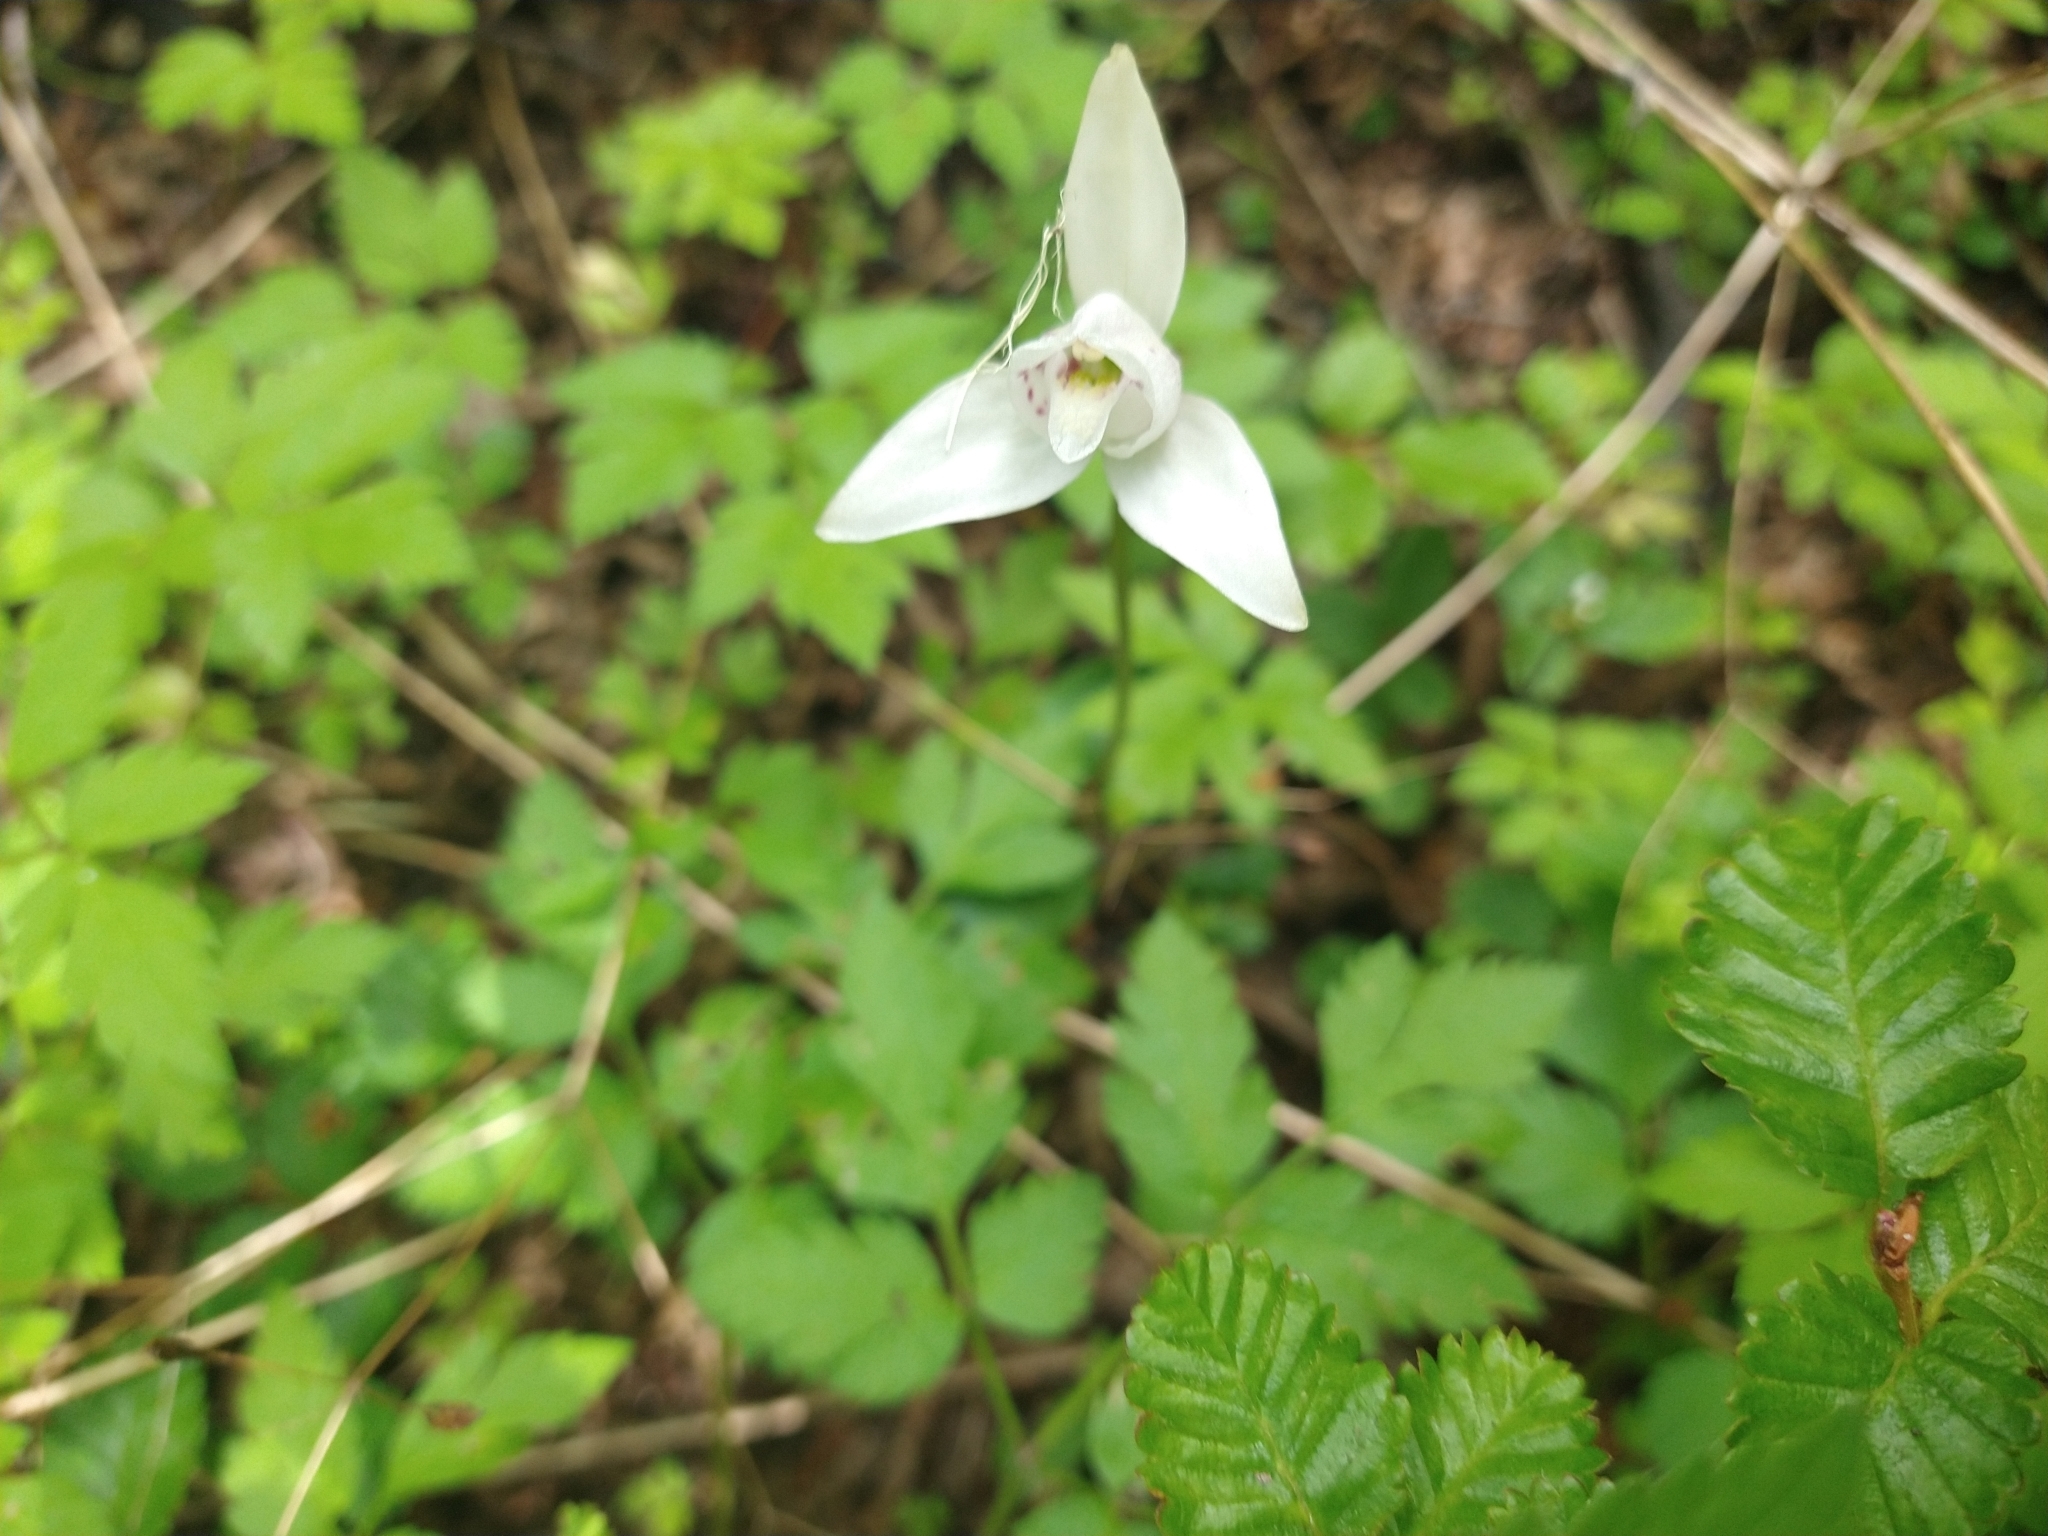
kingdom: Plantae
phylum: Tracheophyta
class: Liliopsida
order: Asparagales
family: Orchidaceae
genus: Codonorchis
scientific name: Codonorchis lessonii
